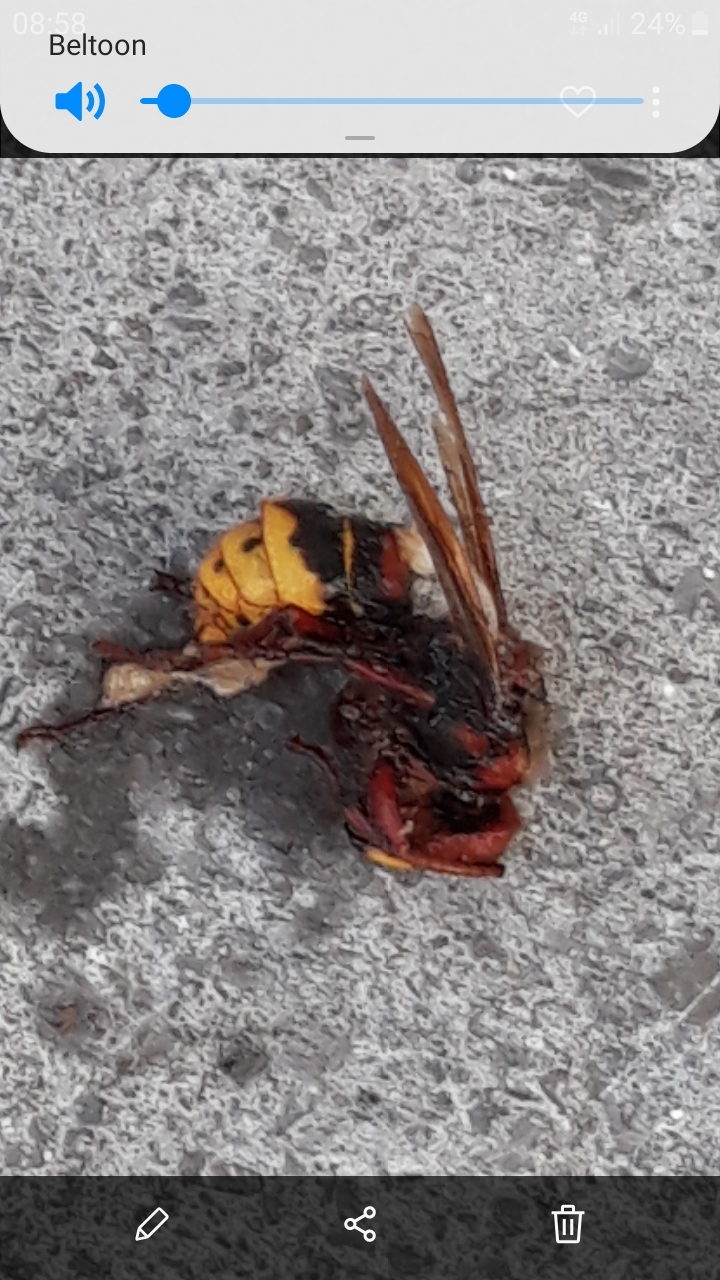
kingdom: Animalia
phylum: Arthropoda
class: Insecta
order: Hymenoptera
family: Vespidae
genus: Vespa
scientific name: Vespa crabro
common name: Hornet
